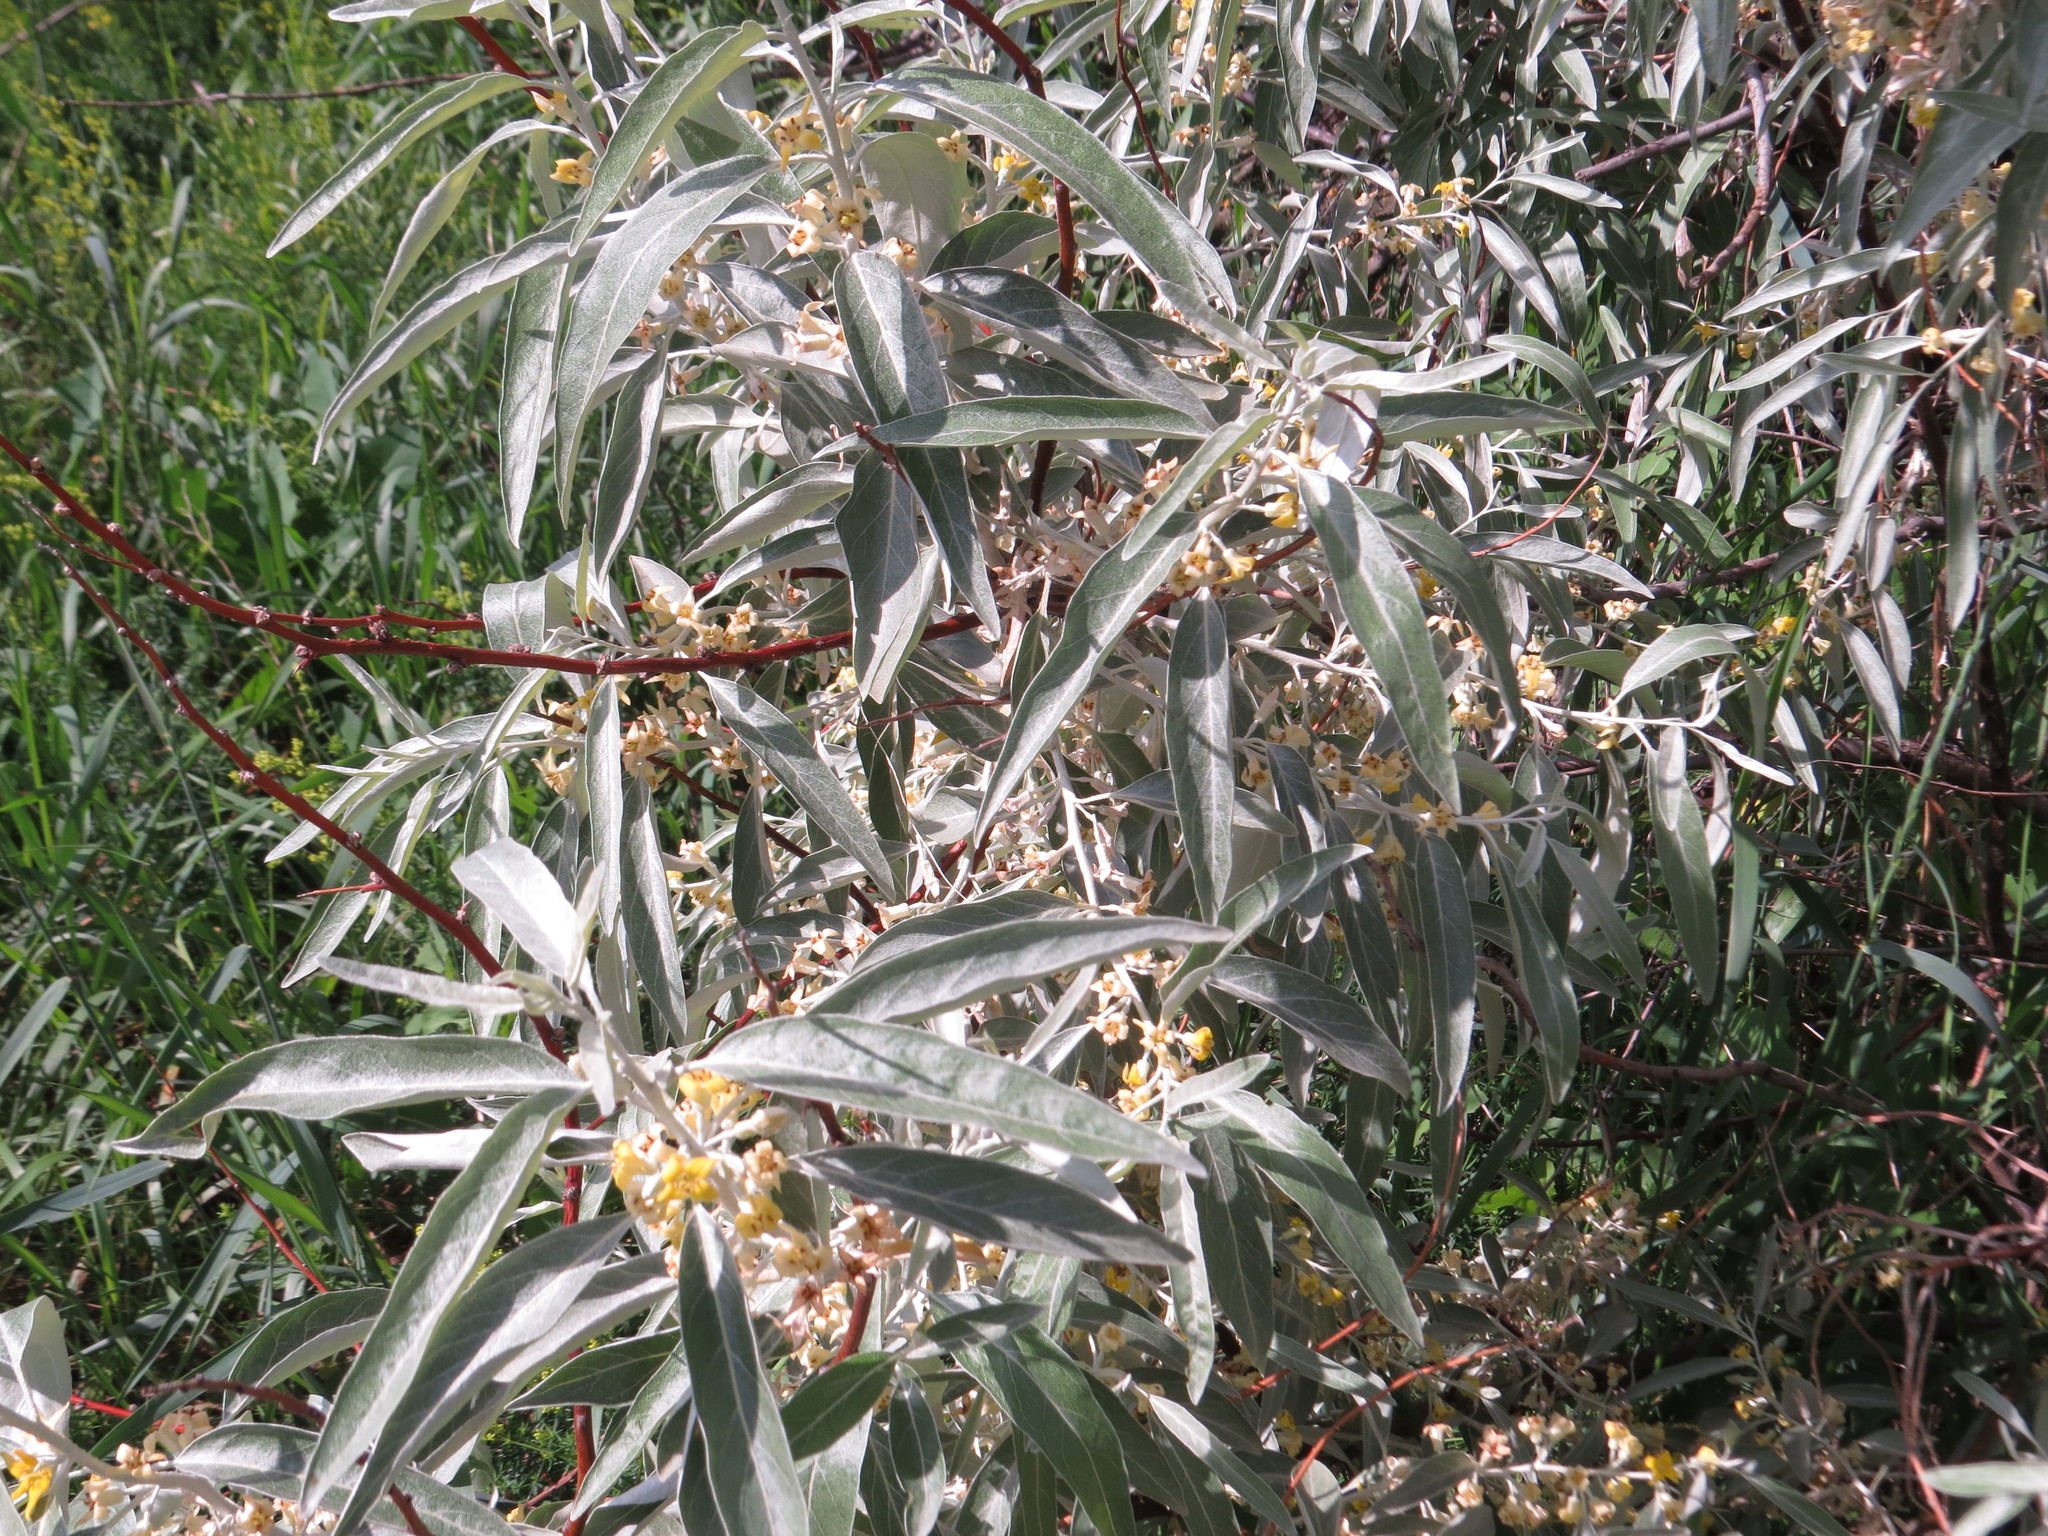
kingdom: Plantae
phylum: Tracheophyta
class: Magnoliopsida
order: Rosales
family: Elaeagnaceae
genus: Elaeagnus
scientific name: Elaeagnus angustifolia
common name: Russian olive
